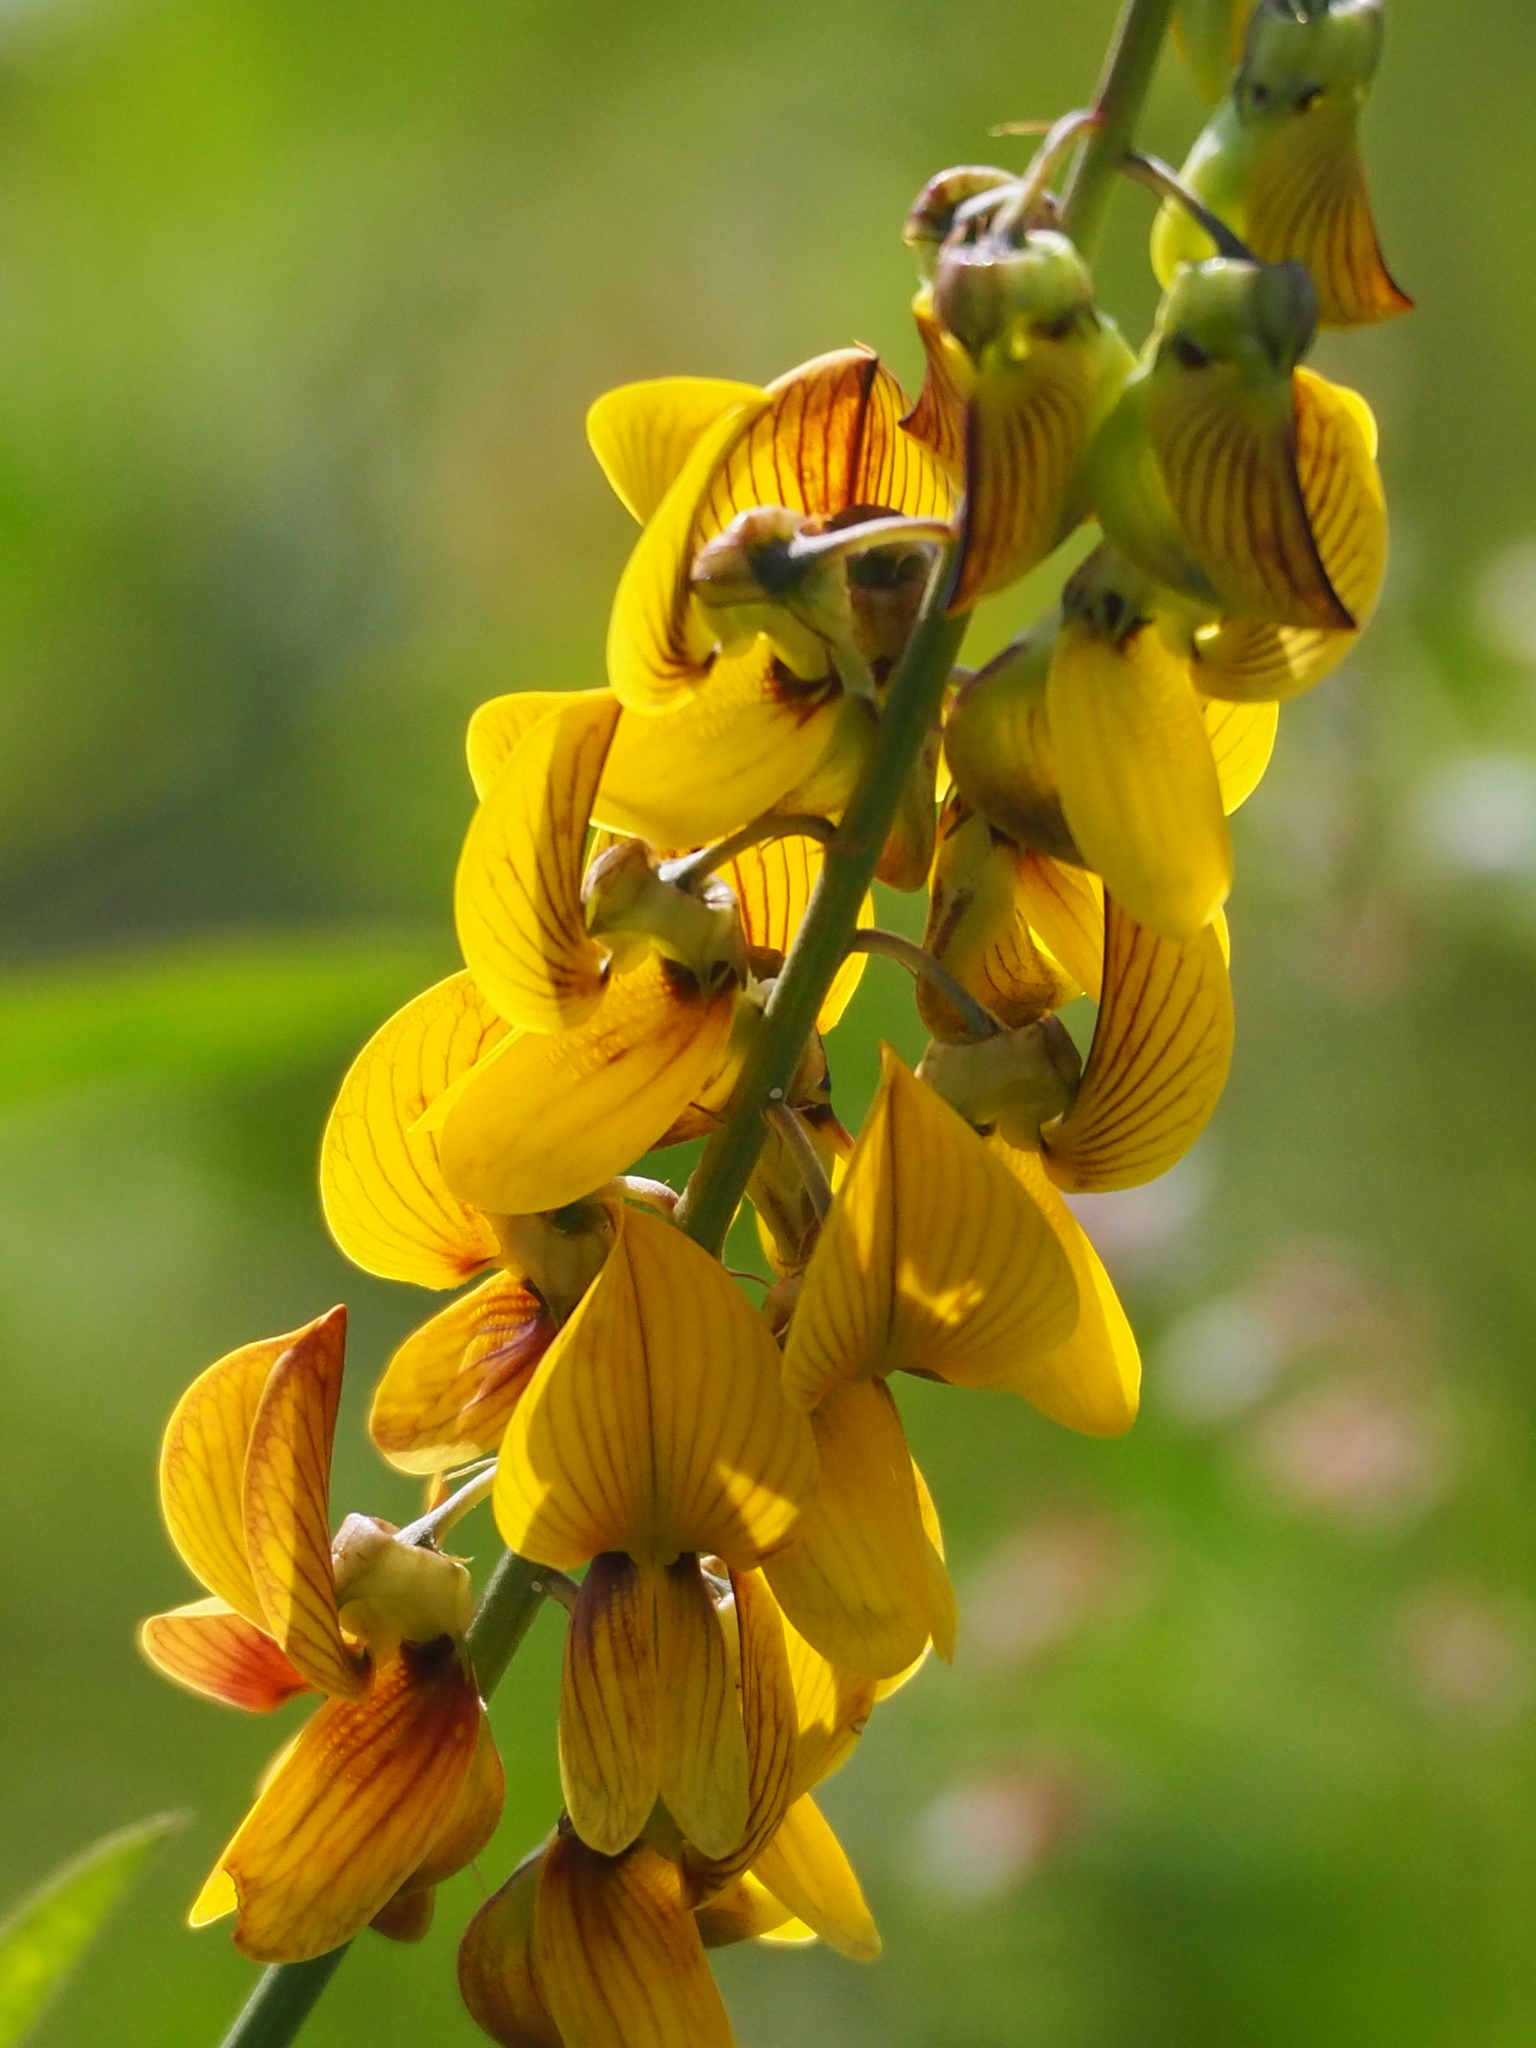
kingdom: Plantae
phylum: Tracheophyta
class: Magnoliopsida
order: Fabales
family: Fabaceae
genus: Crotalaria
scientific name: Crotalaria pallida
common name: Smooth rattlebox
